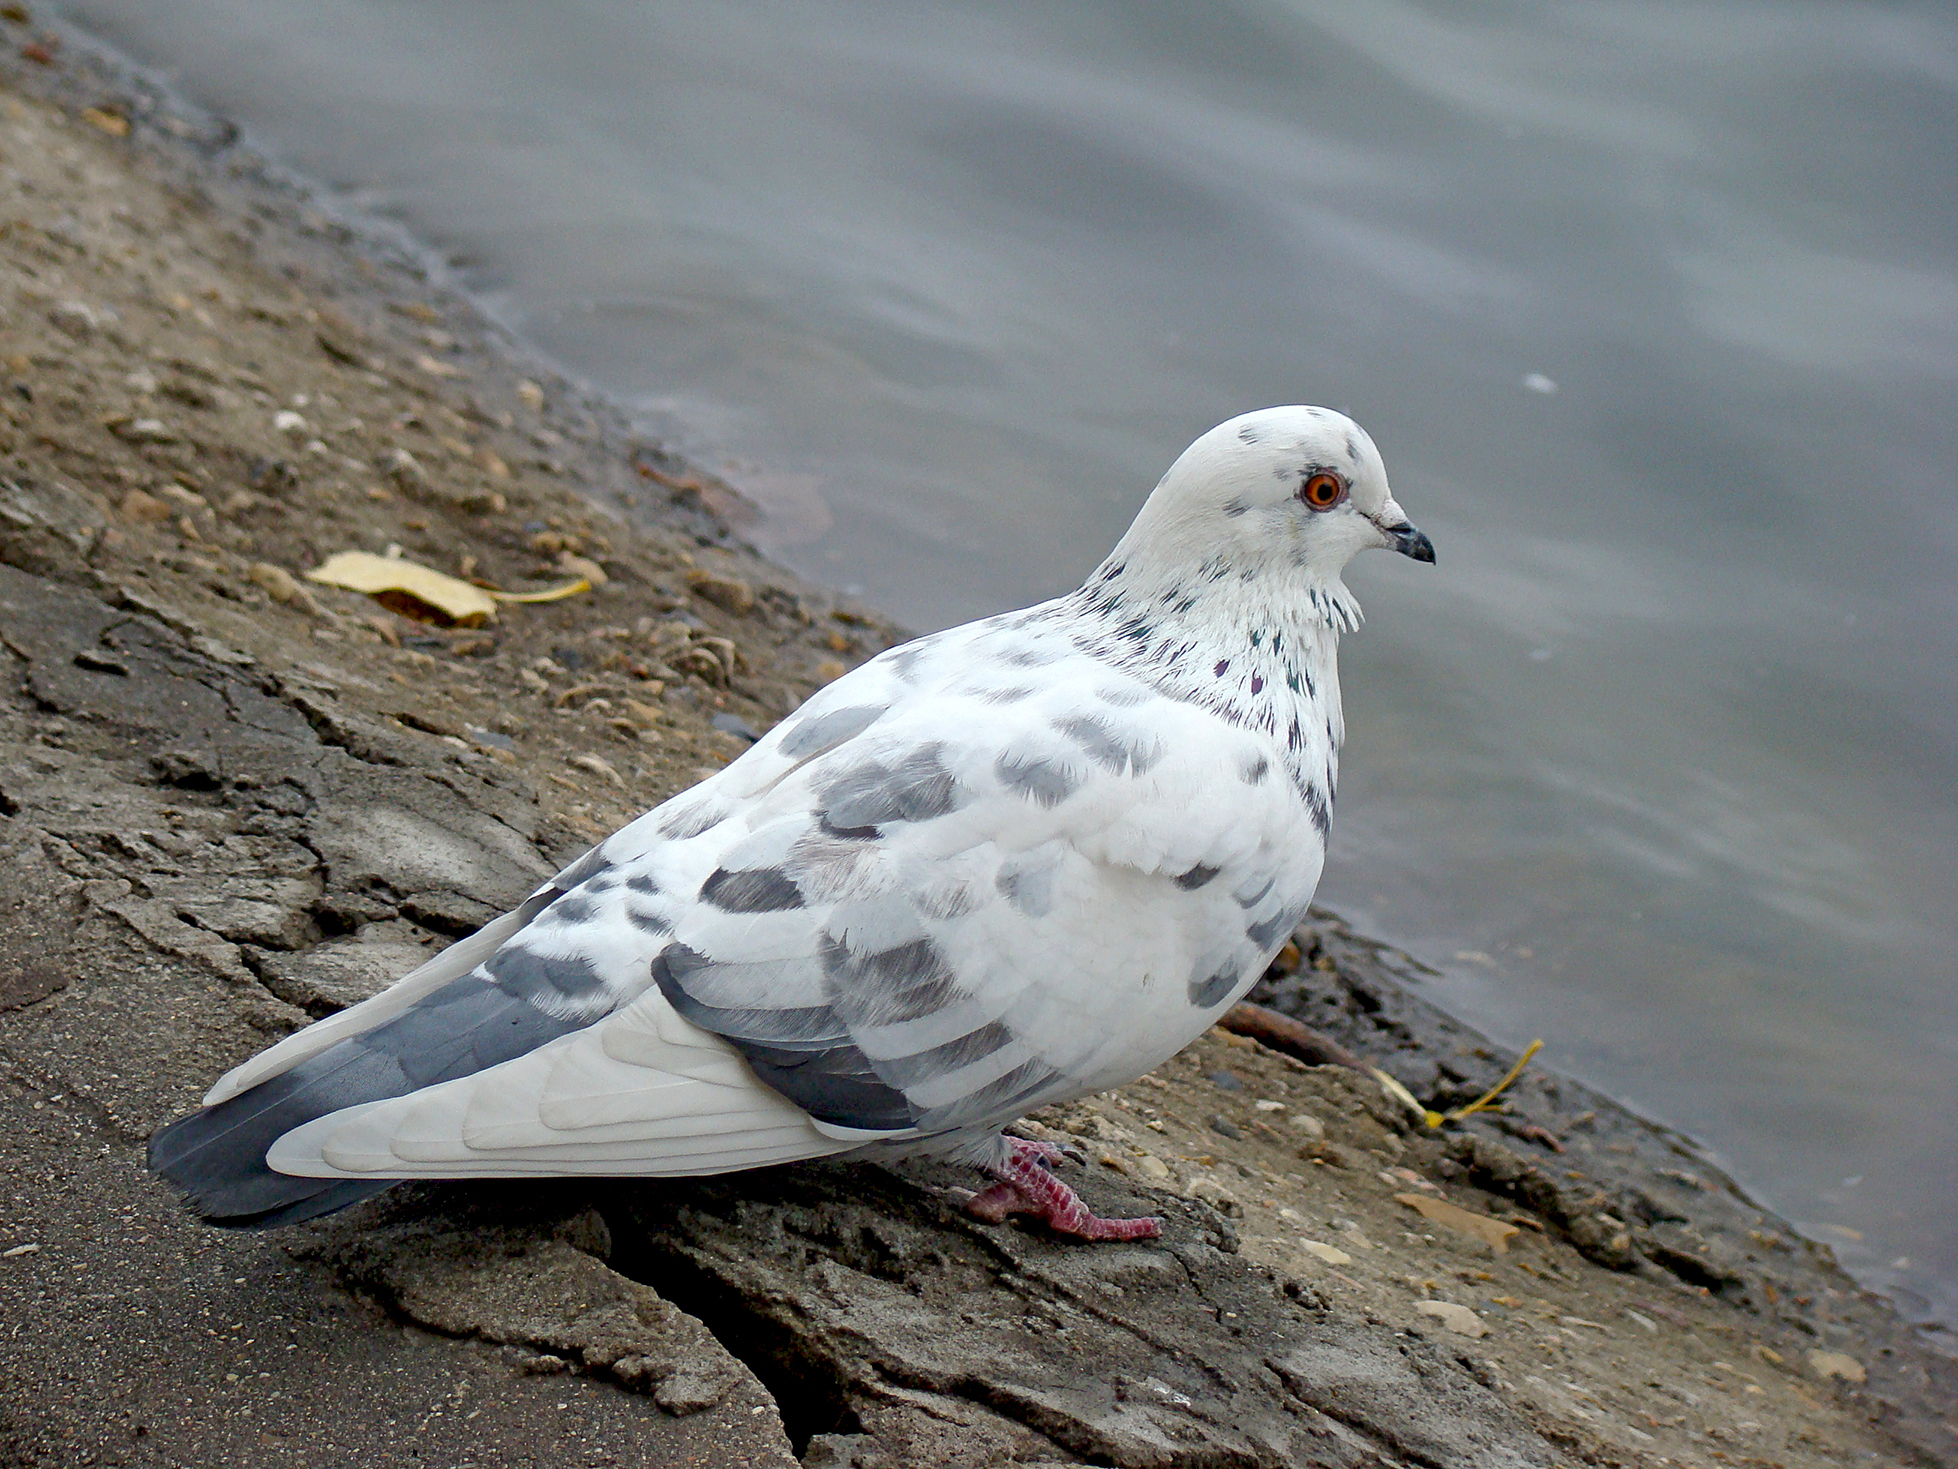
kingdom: Animalia
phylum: Chordata
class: Aves
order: Columbiformes
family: Columbidae
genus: Columba
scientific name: Columba livia
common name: Rock pigeon
